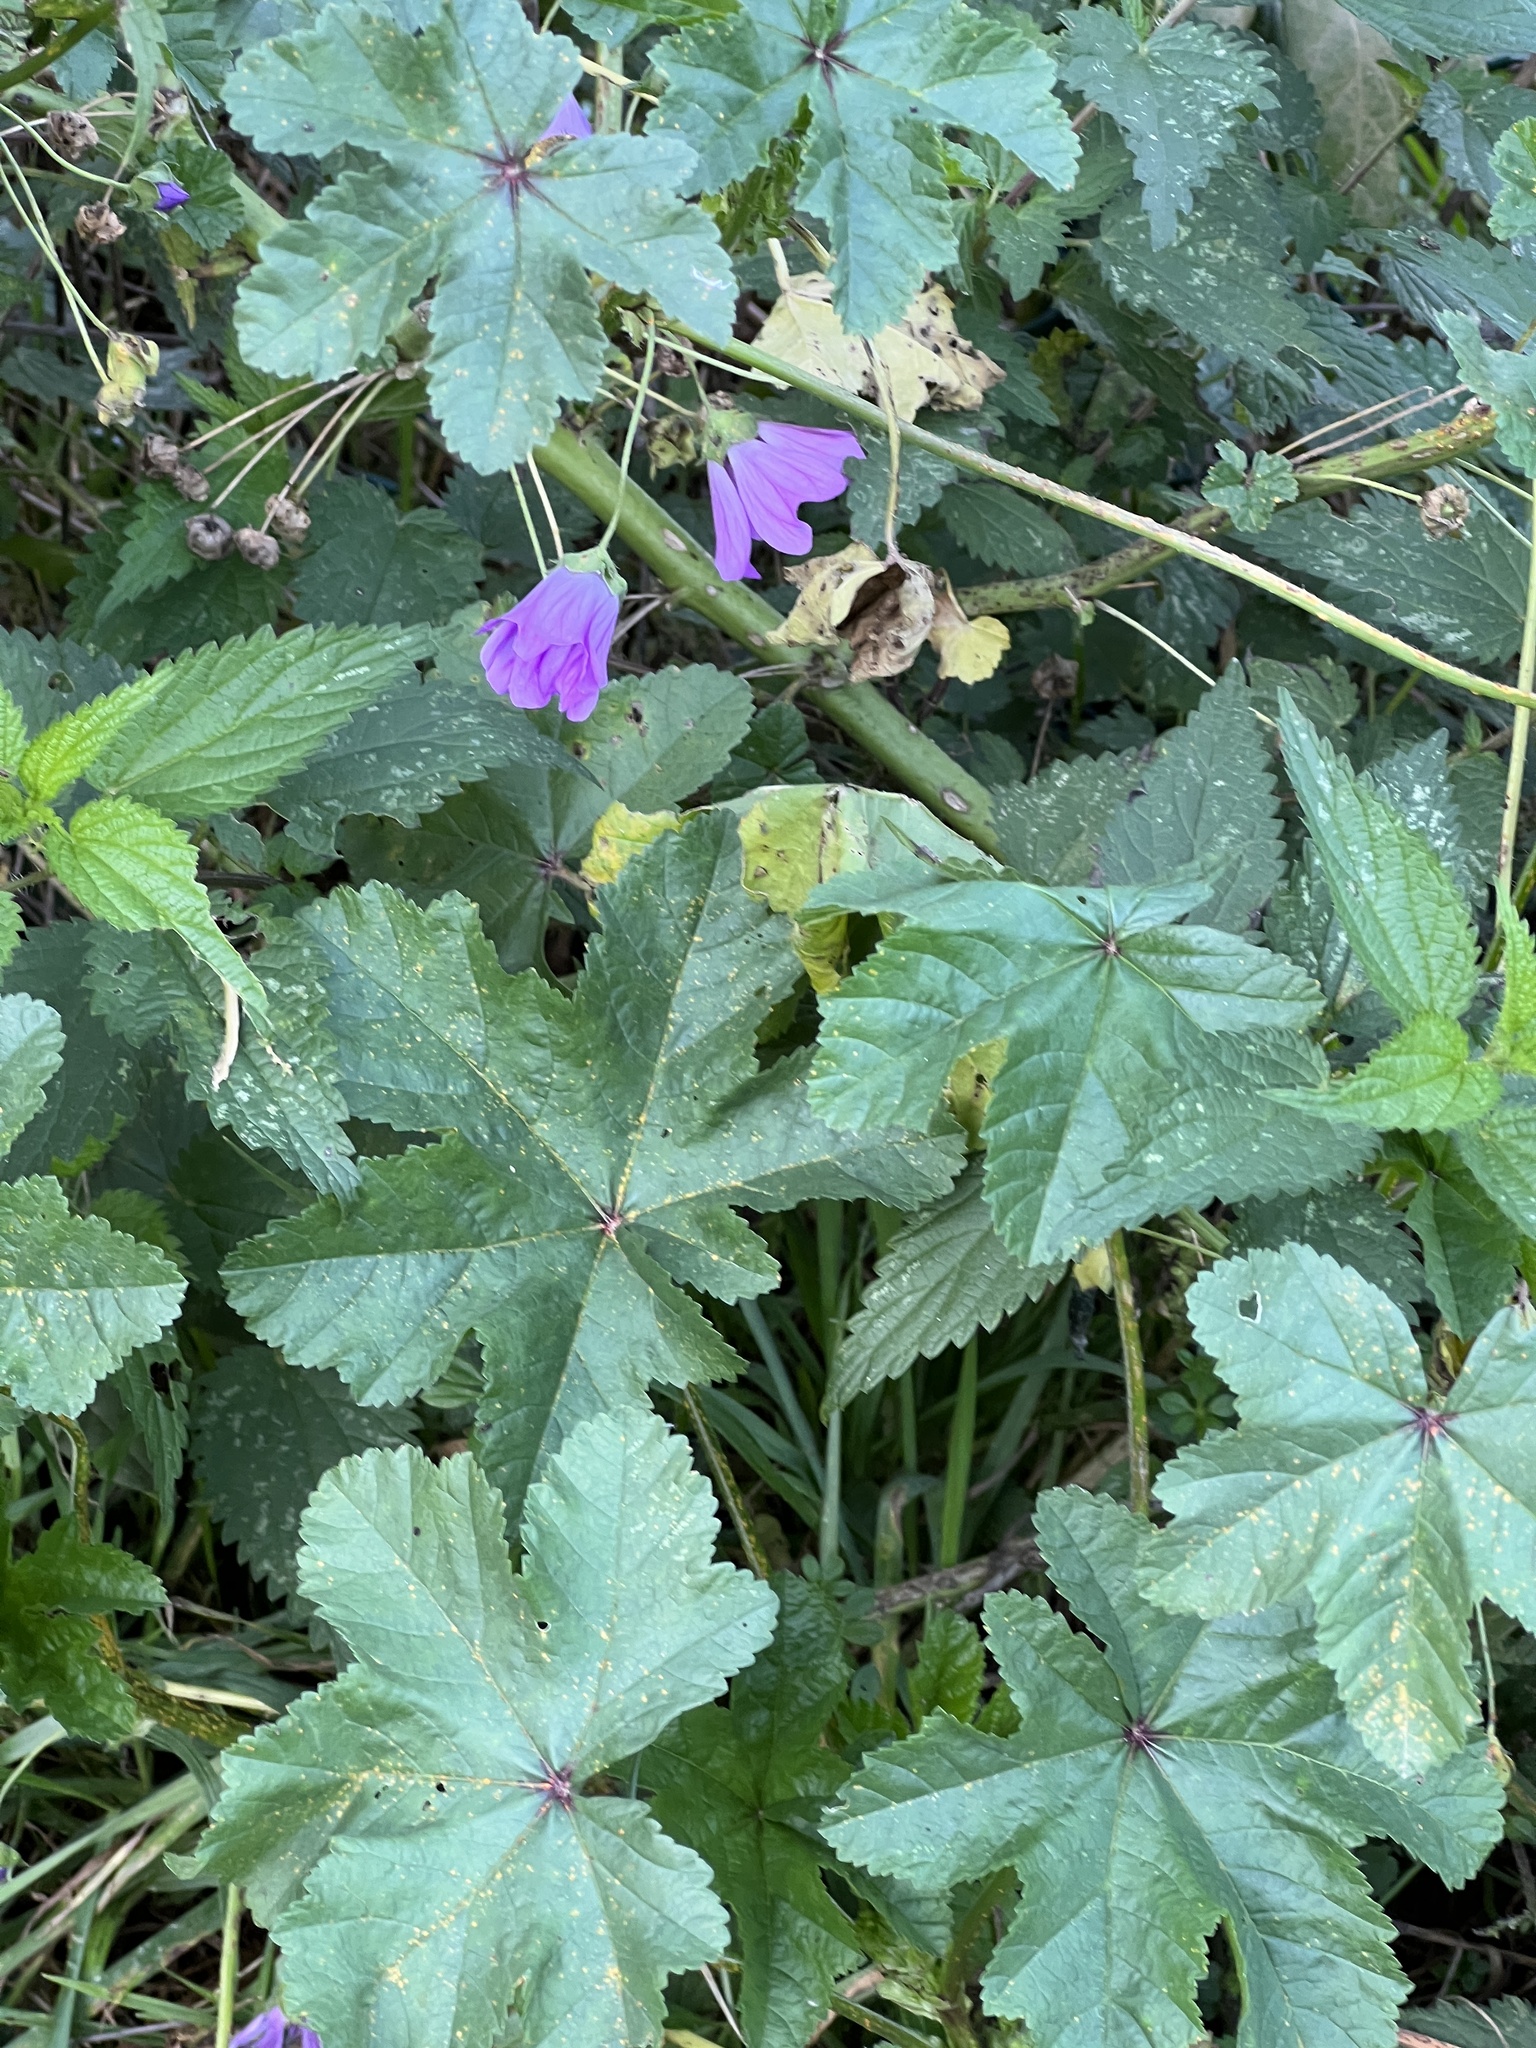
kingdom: Plantae
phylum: Tracheophyta
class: Magnoliopsida
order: Malvales
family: Malvaceae
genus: Malva
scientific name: Malva sylvestris
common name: Common mallow
